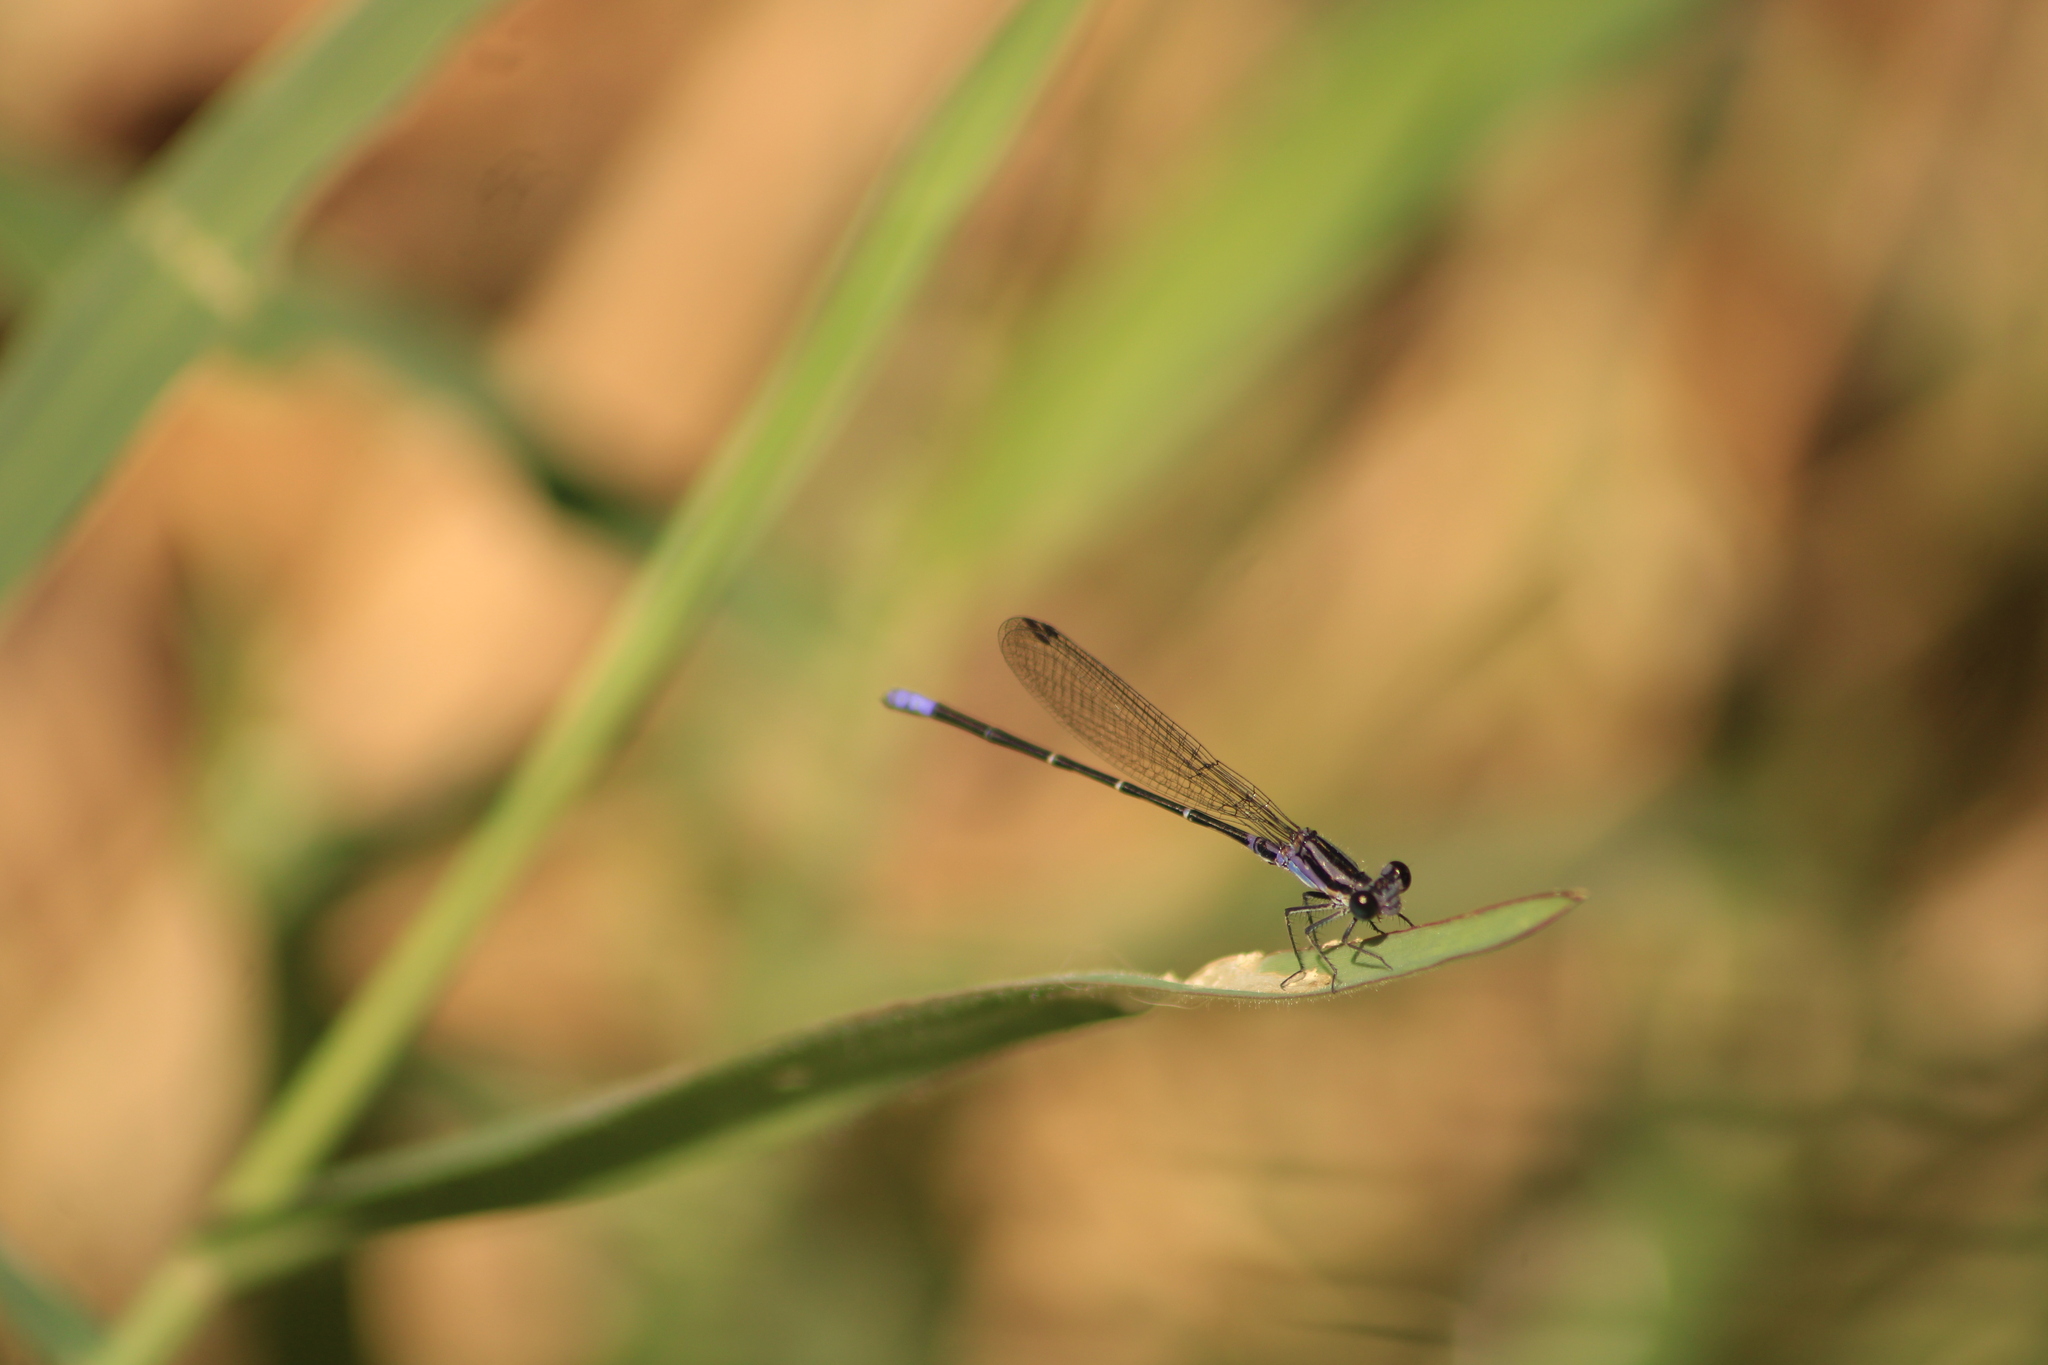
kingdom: Animalia
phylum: Arthropoda
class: Insecta
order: Odonata
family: Coenagrionidae
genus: Argia
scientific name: Argia pulla
